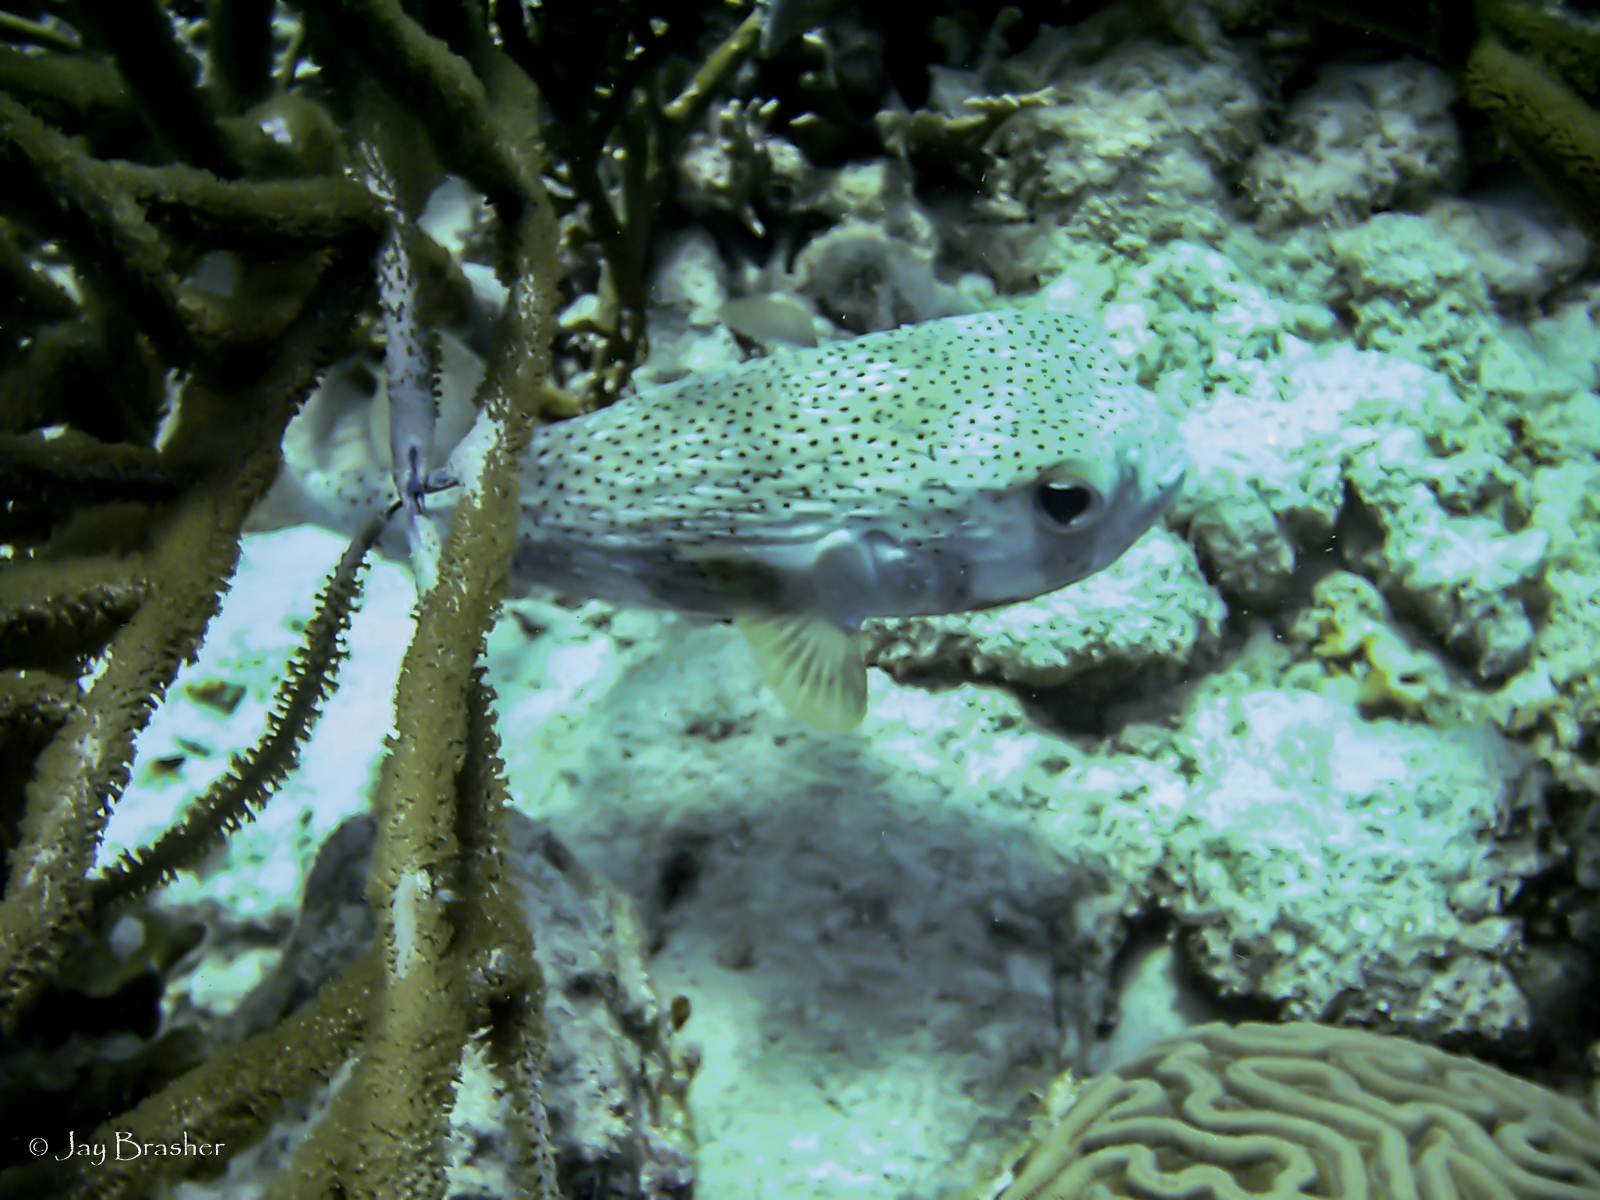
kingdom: Animalia
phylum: Chordata
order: Tetraodontiformes
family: Diodontidae
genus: Diodon
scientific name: Diodon hystrix
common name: Giant porcupinefish
